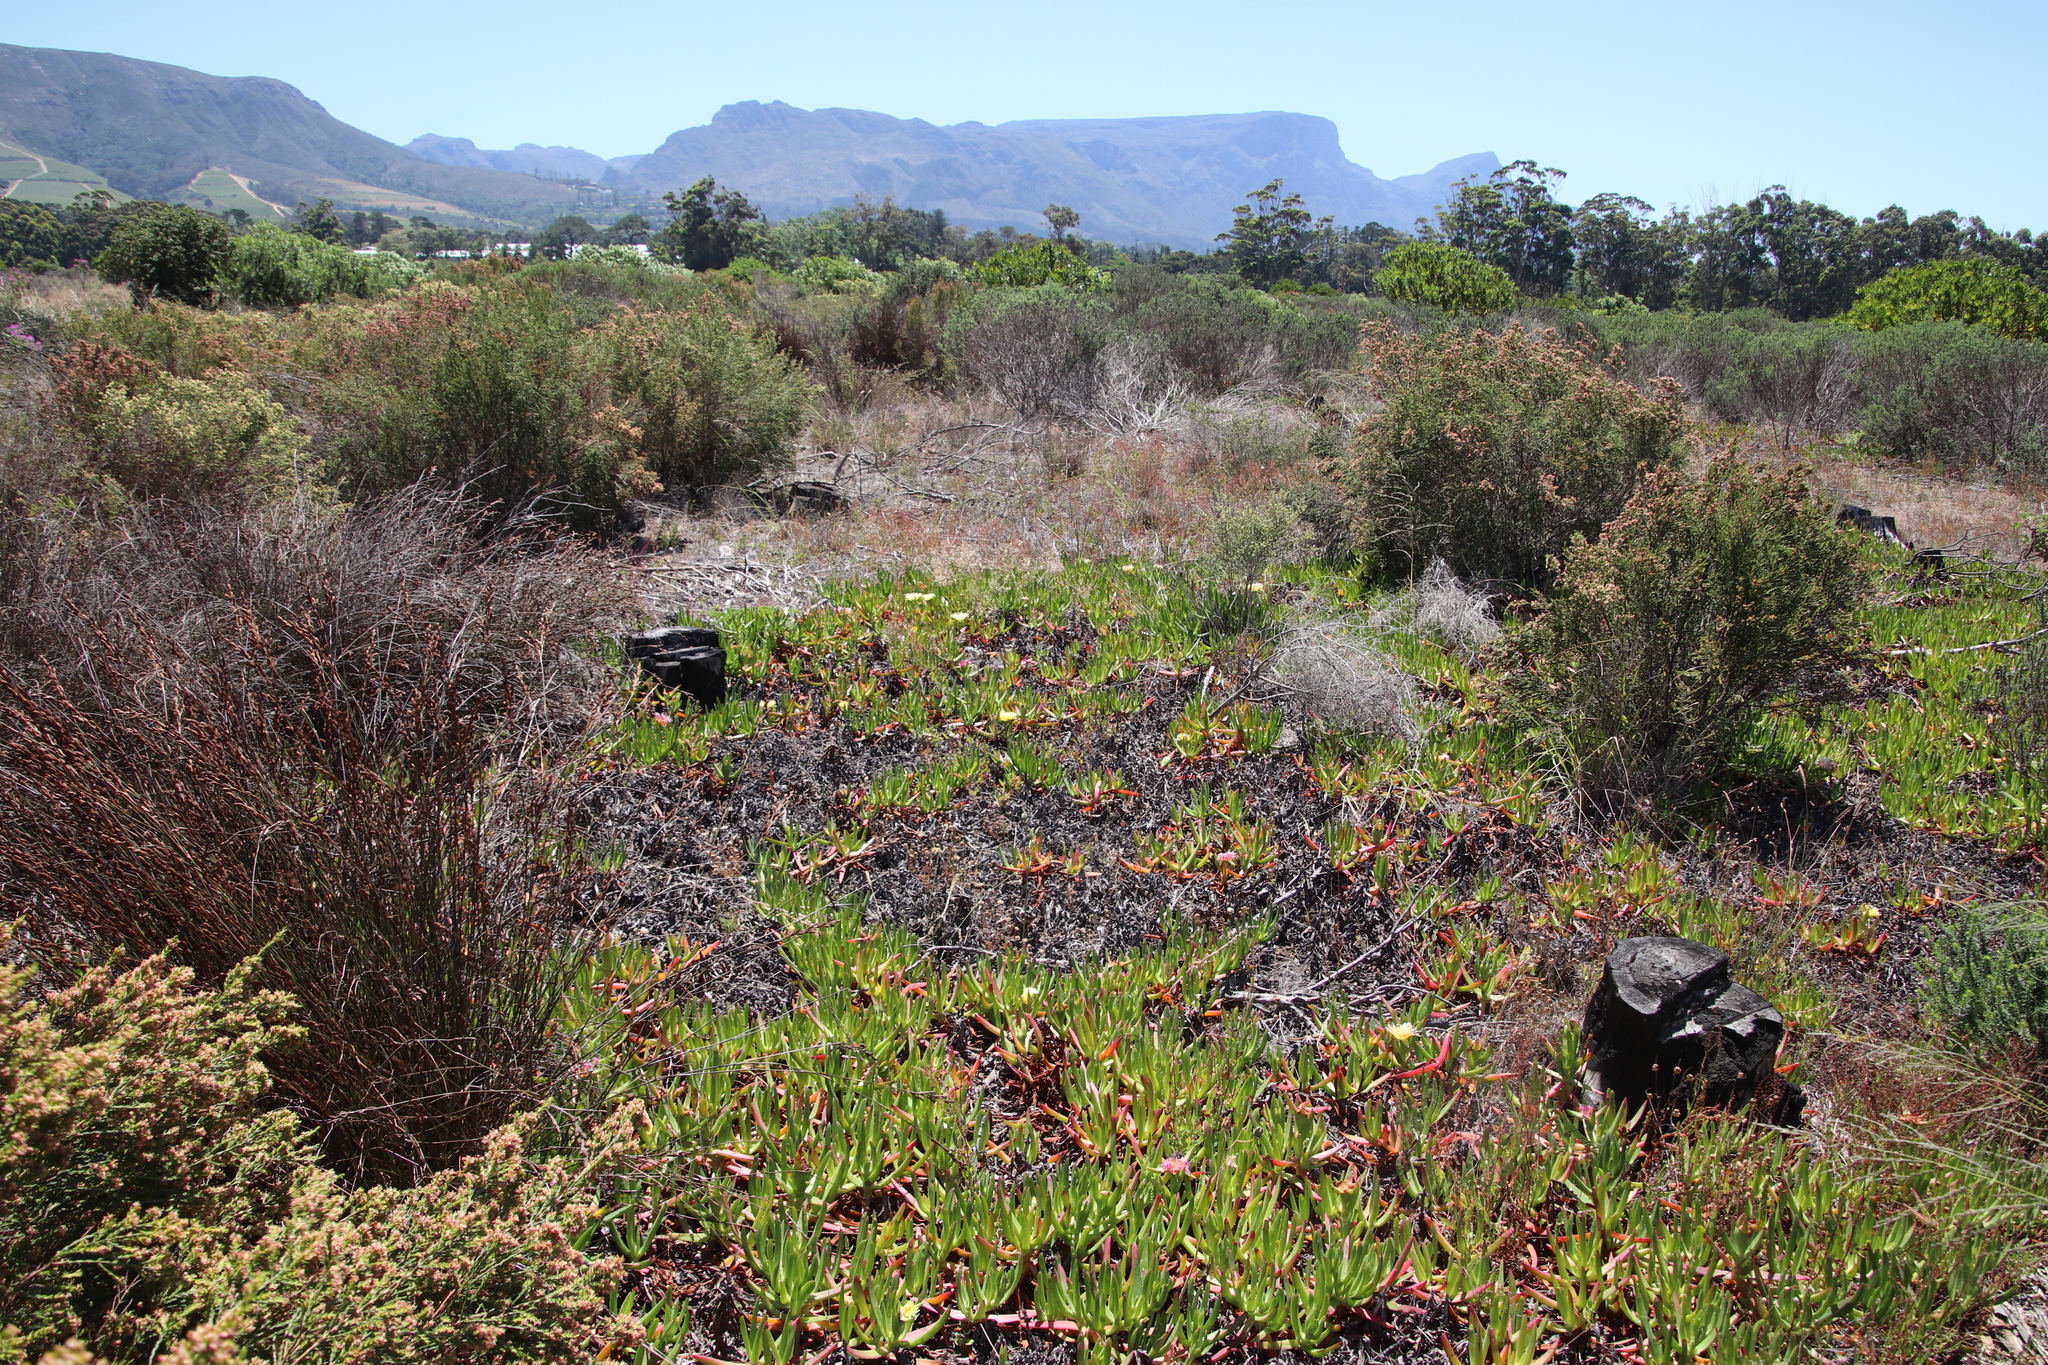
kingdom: Plantae
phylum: Tracheophyta
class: Magnoliopsida
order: Caryophyllales
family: Aizoaceae
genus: Carpobrotus
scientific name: Carpobrotus edulis
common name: Hottentot-fig
